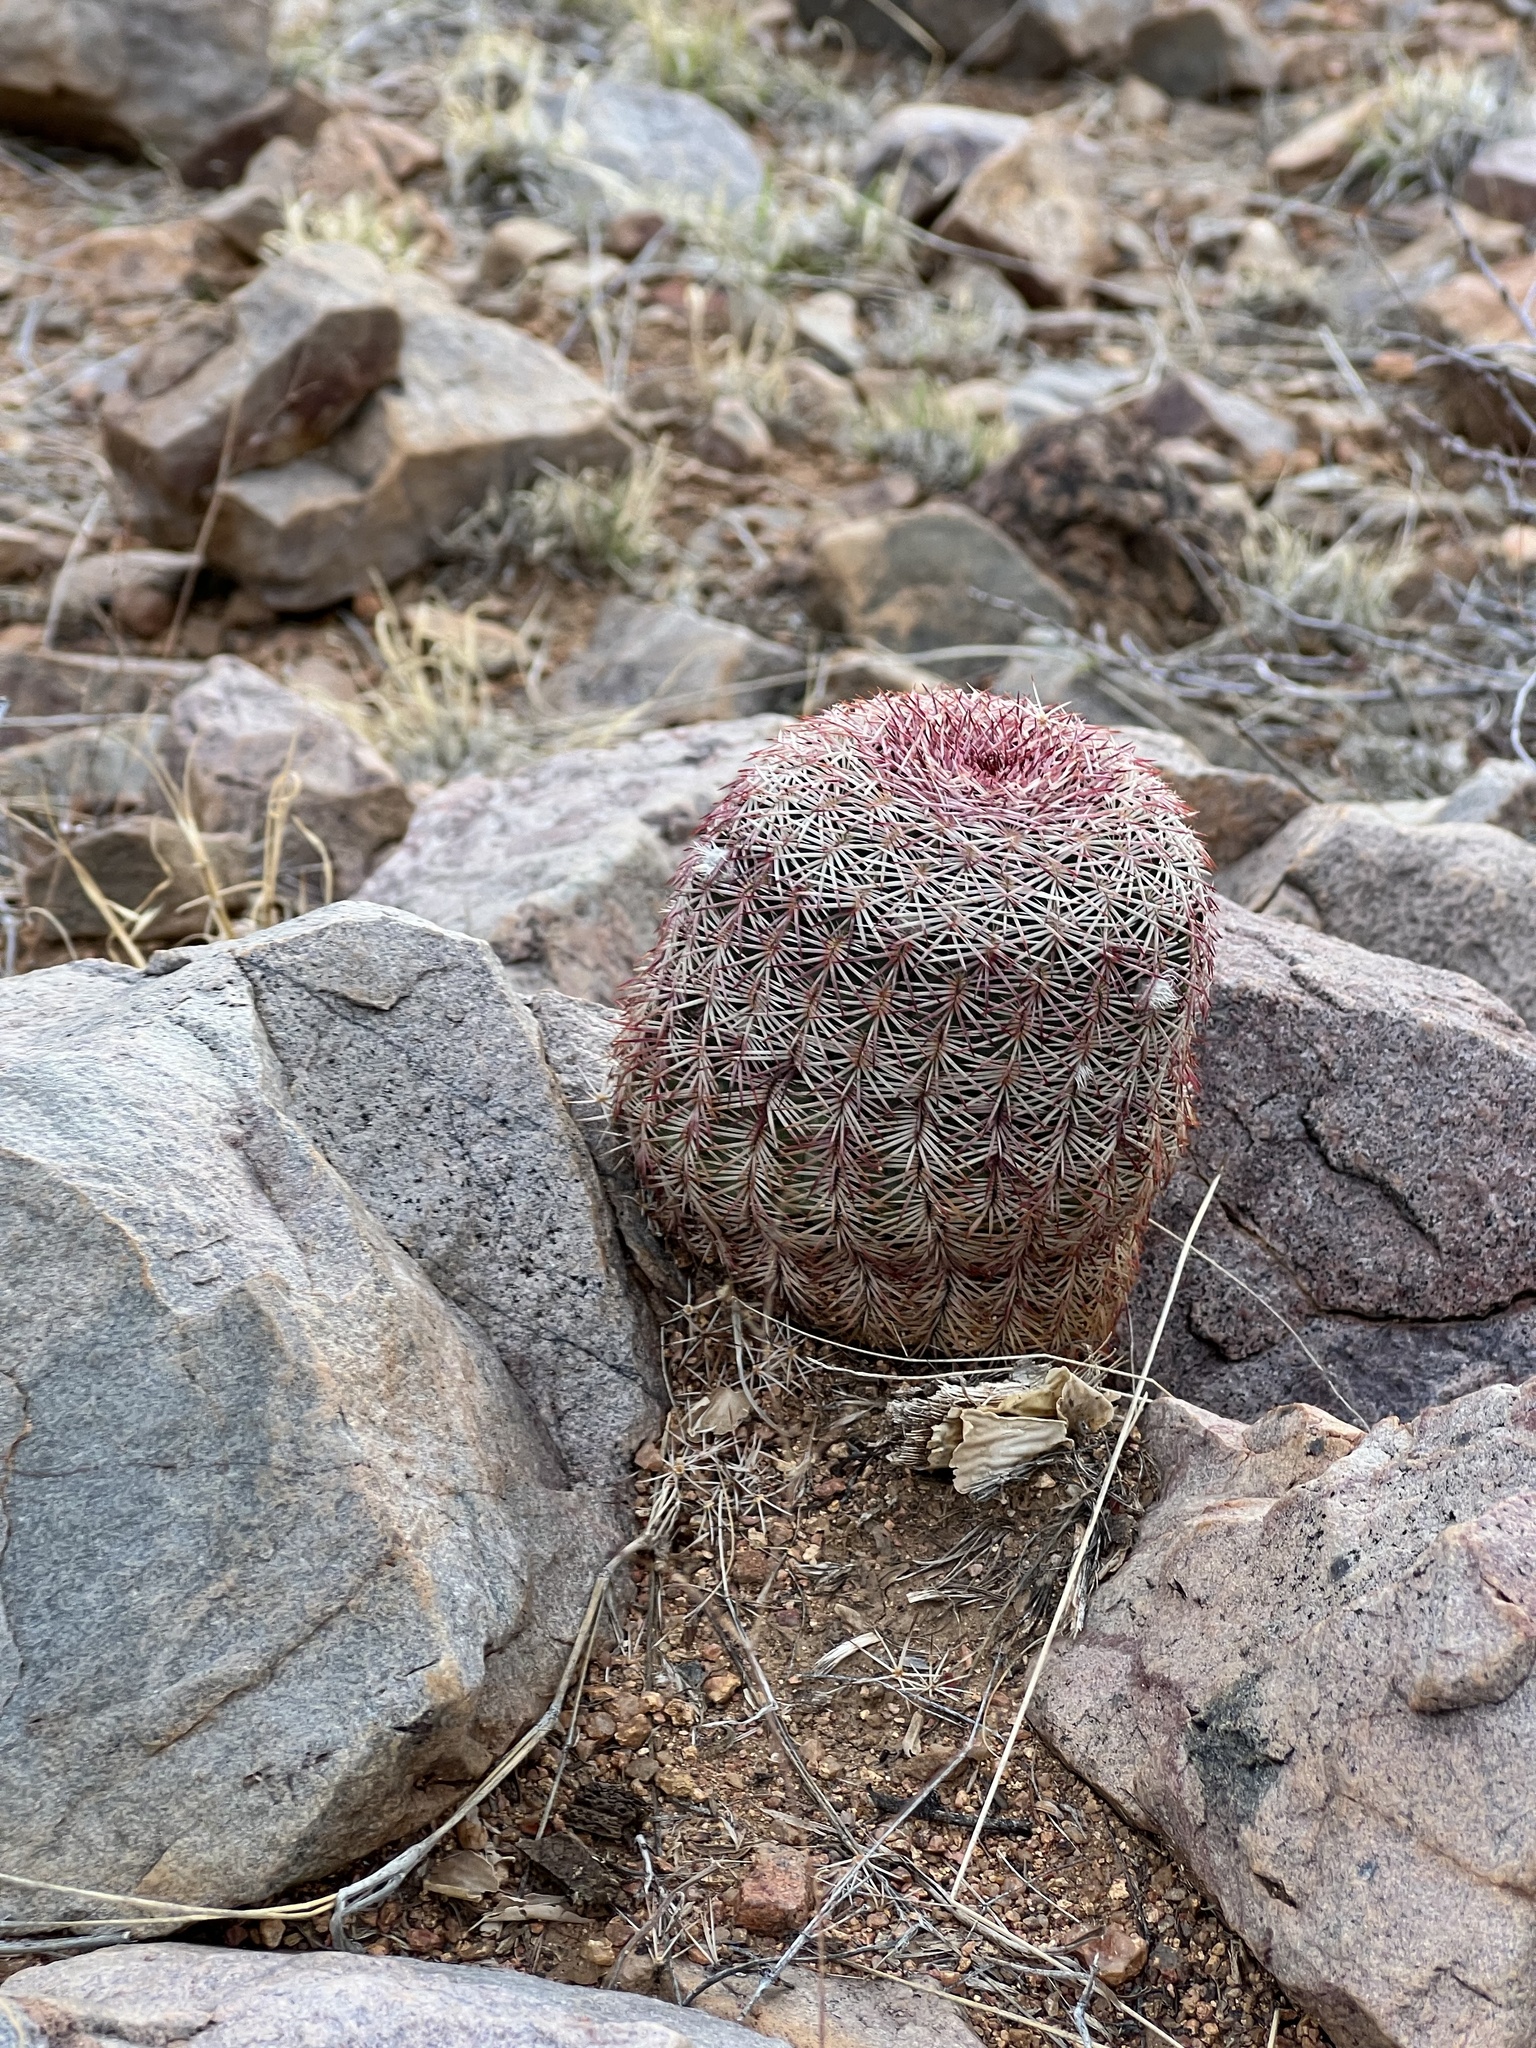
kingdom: Plantae
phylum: Tracheophyta
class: Magnoliopsida
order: Caryophyllales
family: Cactaceae
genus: Echinocereus
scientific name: Echinocereus rigidissimus
